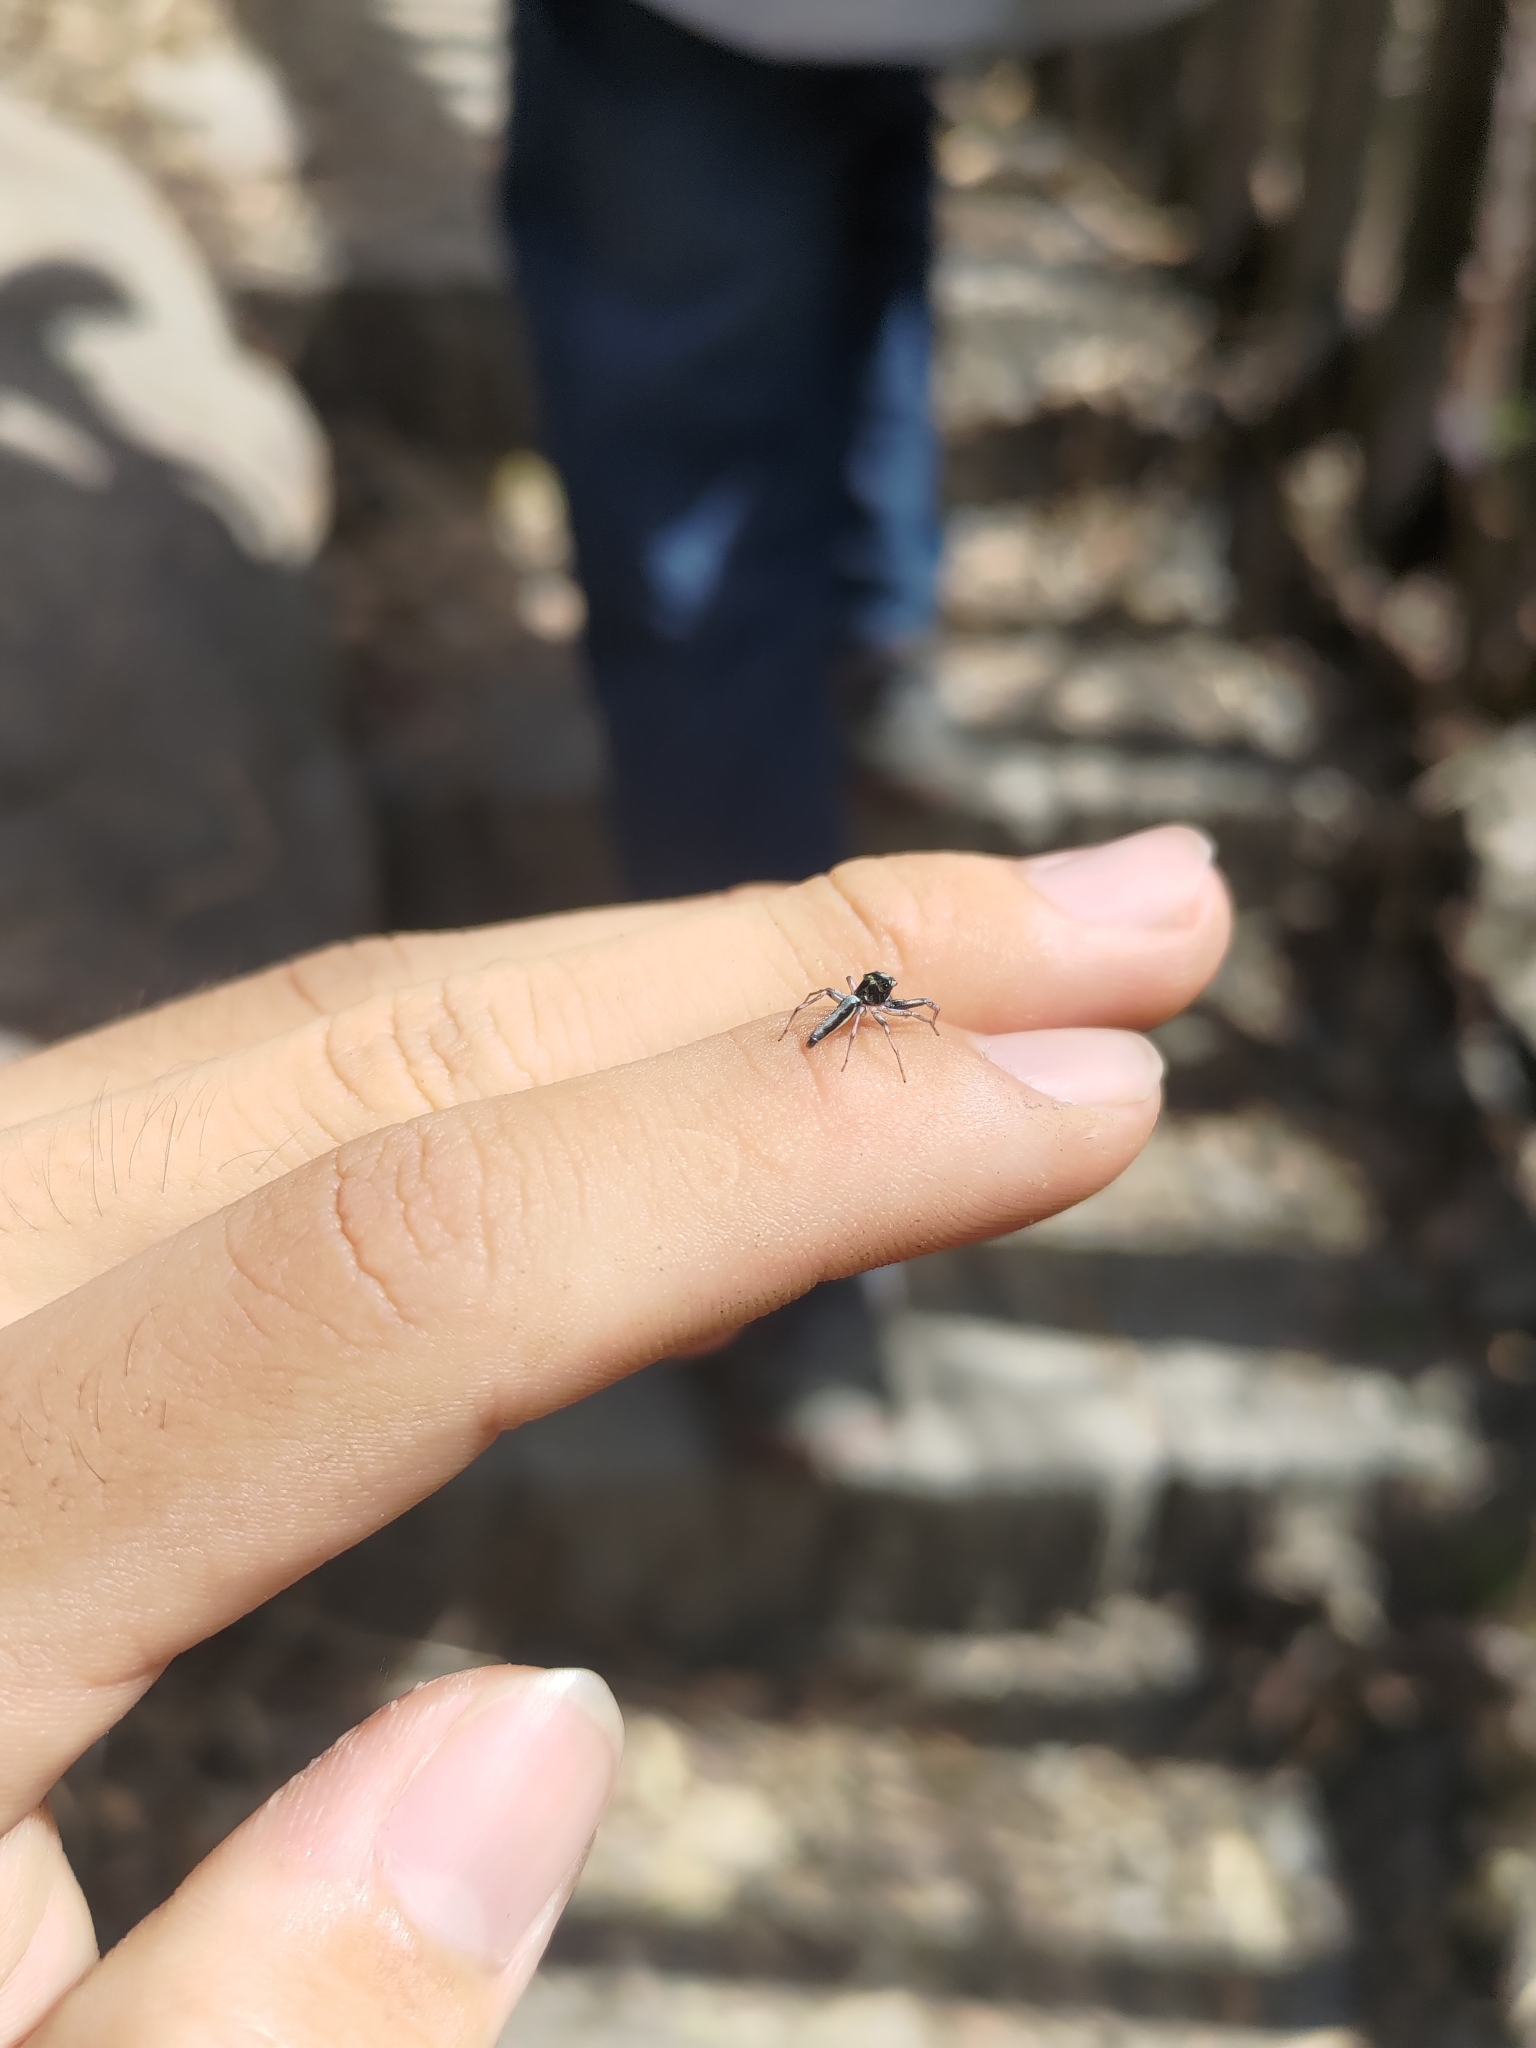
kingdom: Animalia
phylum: Arthropoda
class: Arachnida
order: Araneae
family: Salticidae
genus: Zebraplatys
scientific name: Zebraplatys bulbus
